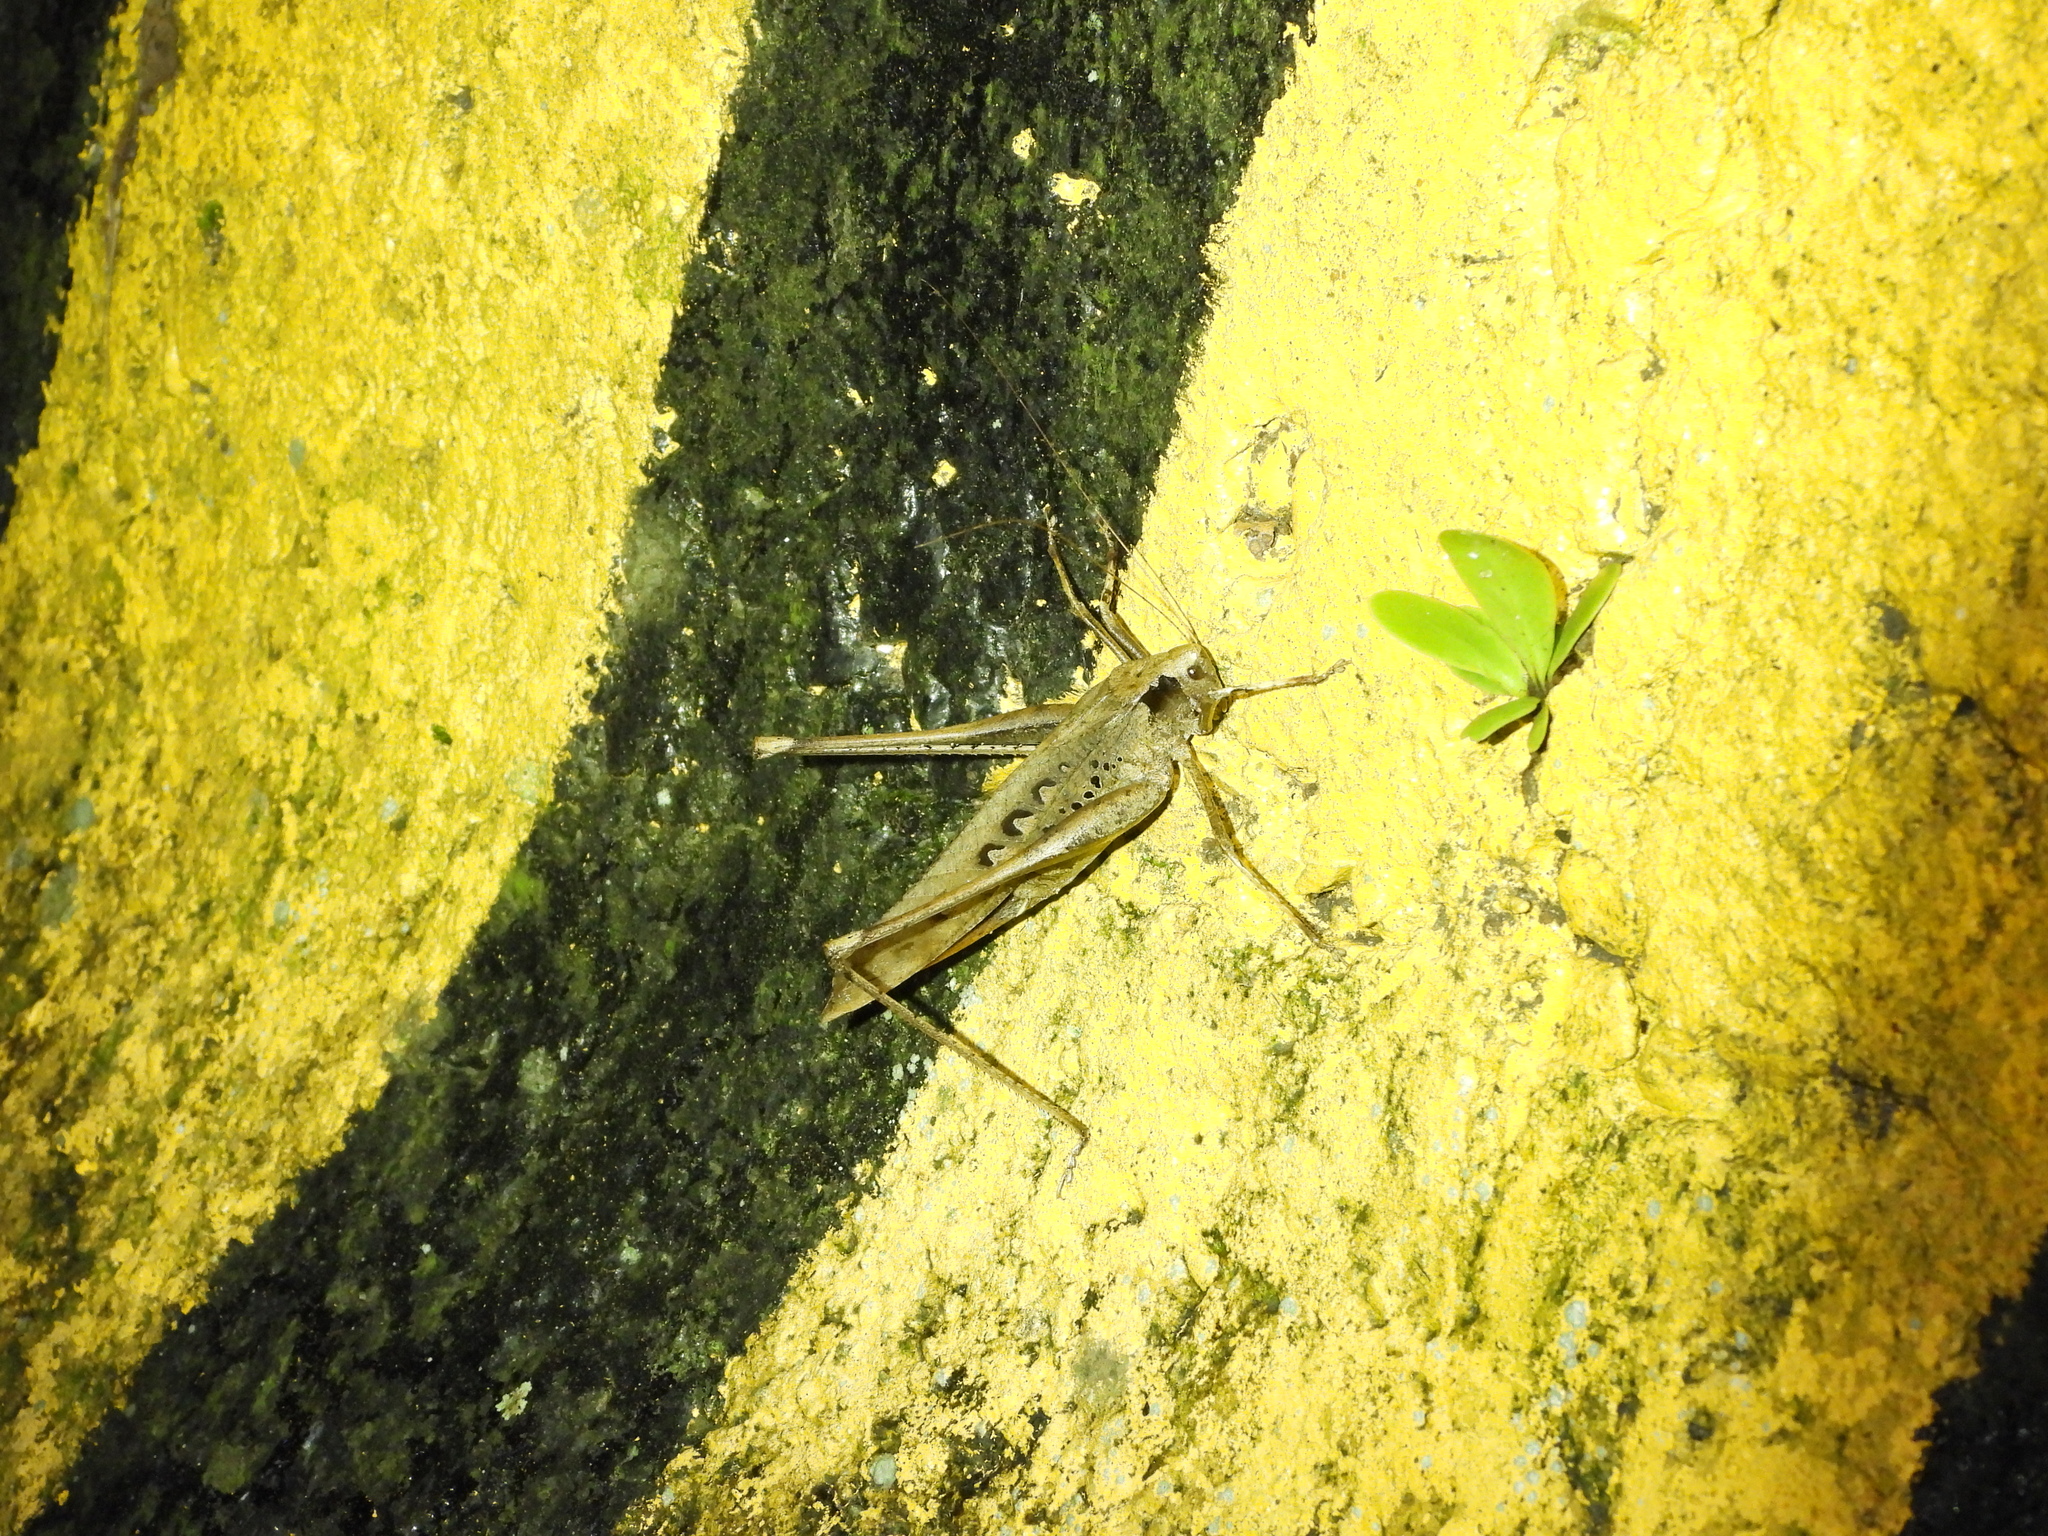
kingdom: Animalia
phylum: Arthropoda
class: Insecta
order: Orthoptera
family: Tettigoniidae
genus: Mecopoda
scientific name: Mecopoda elongata
